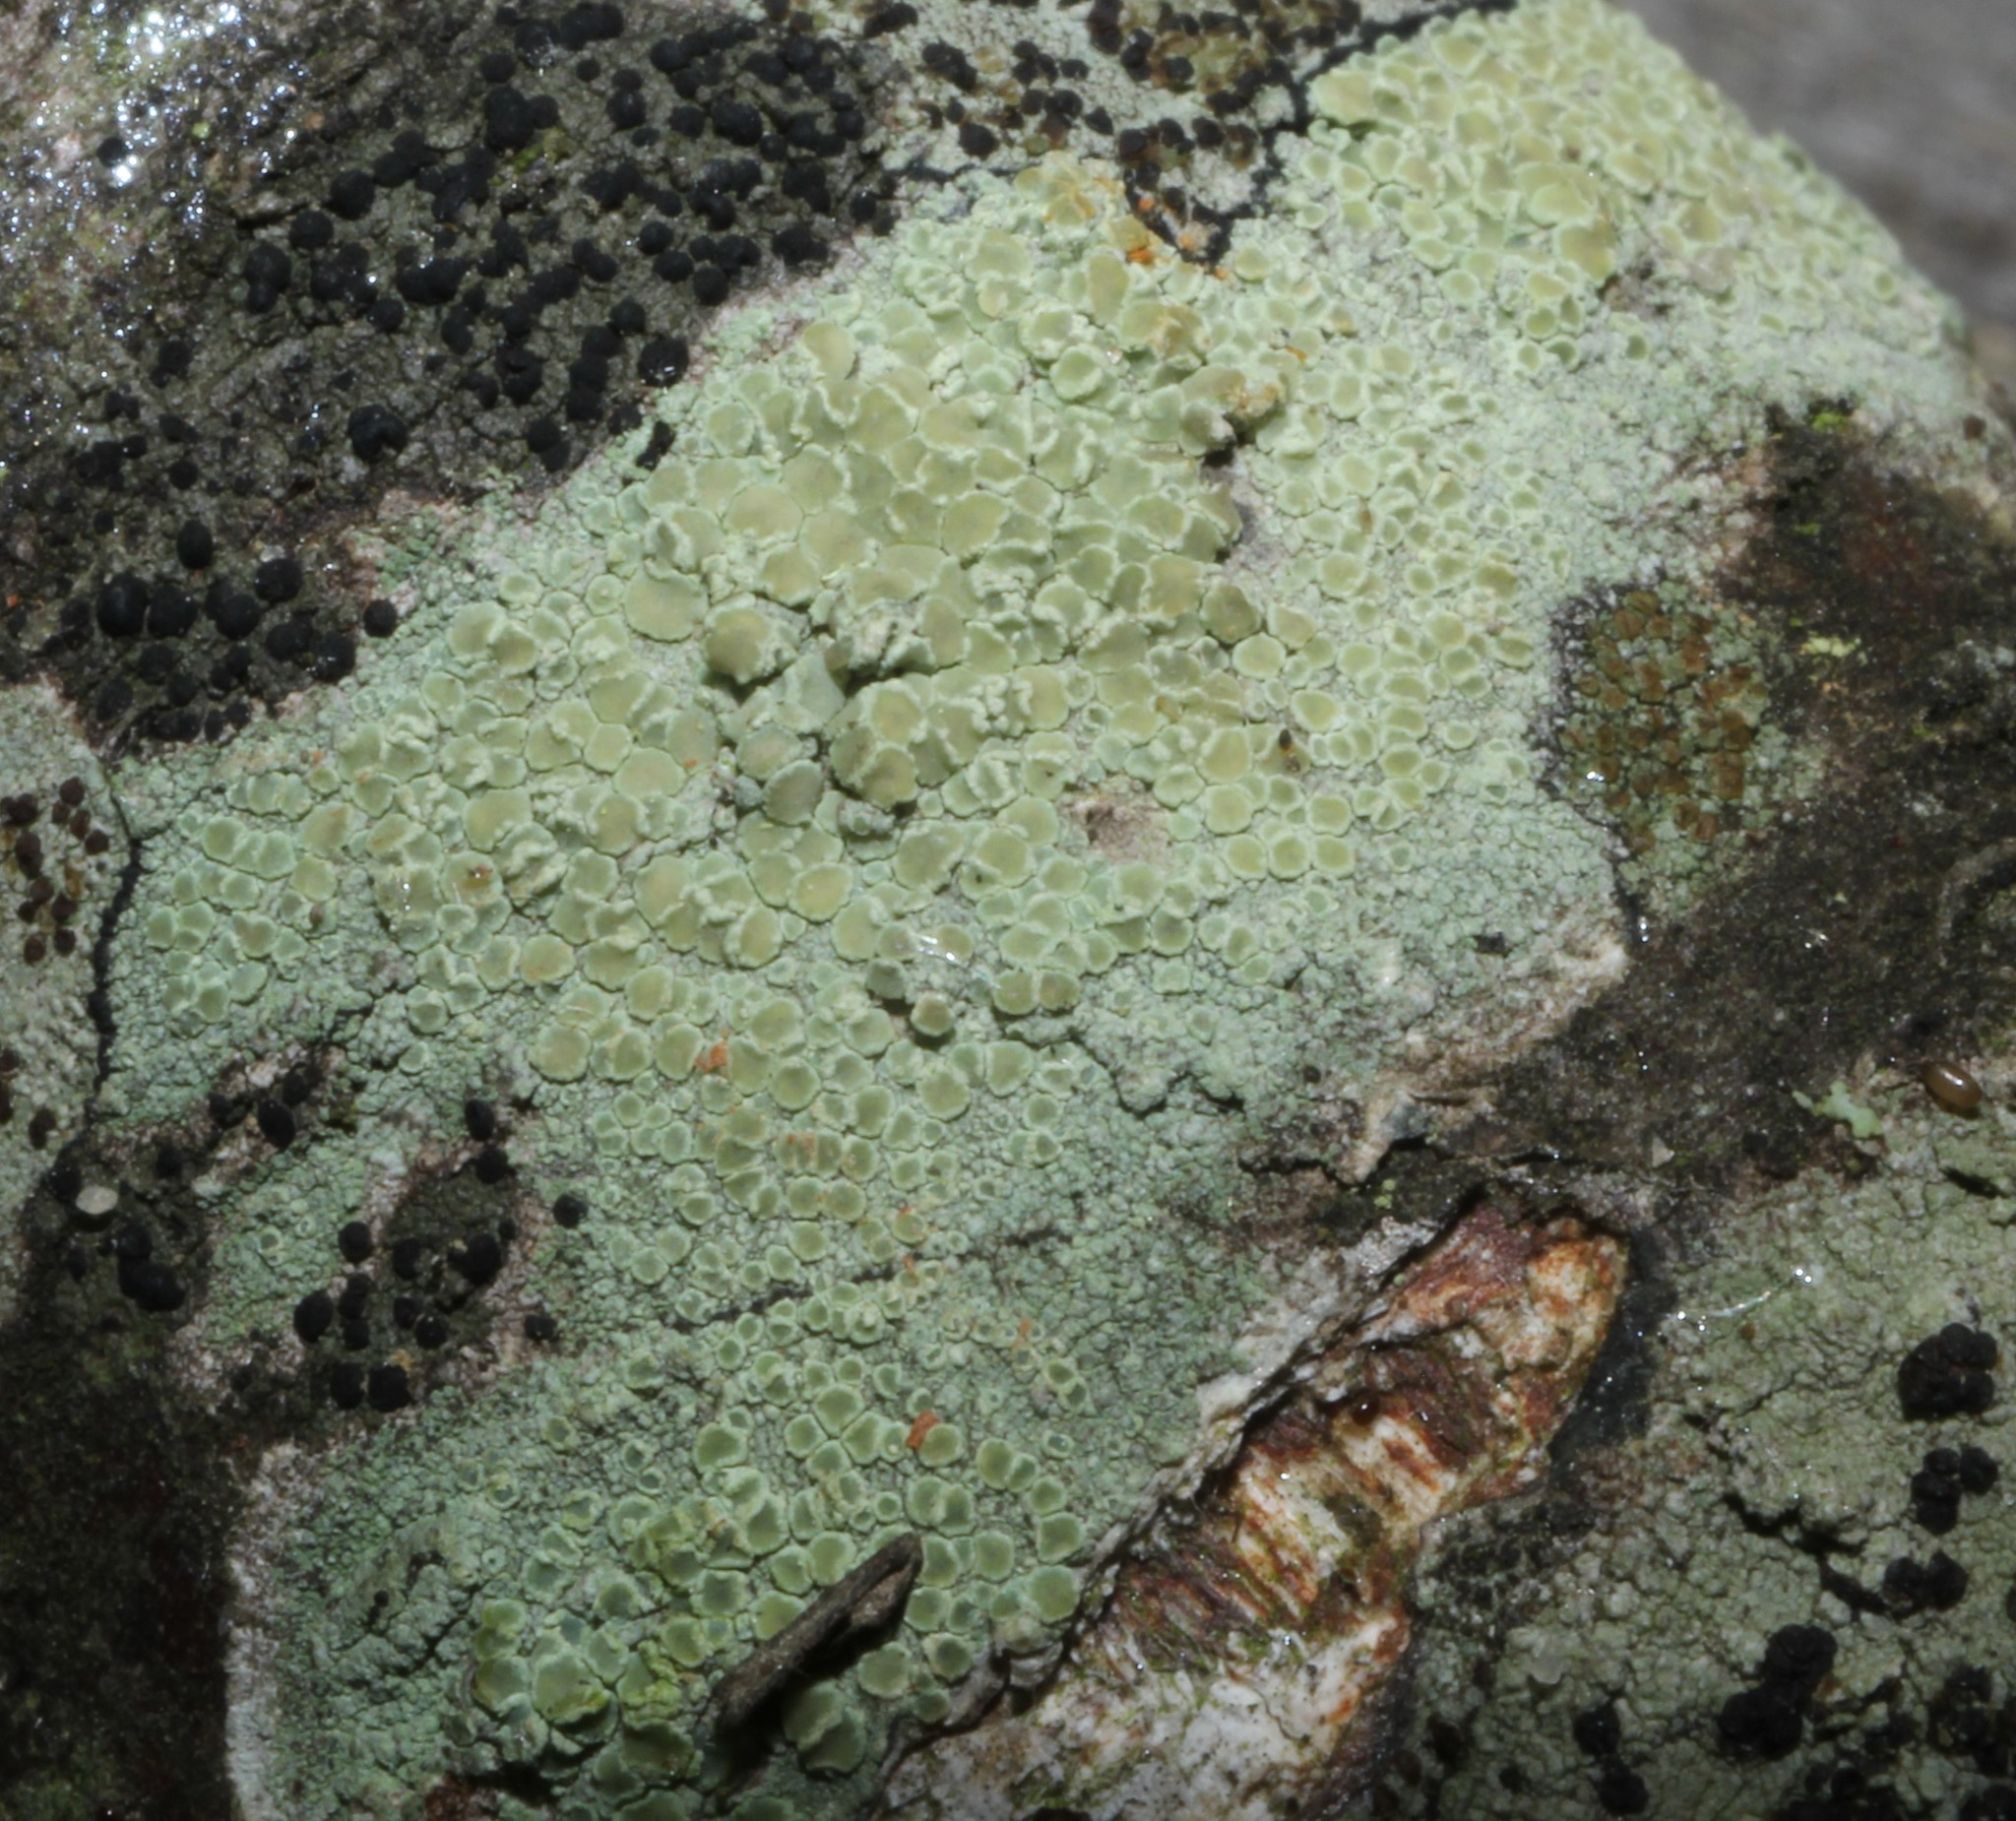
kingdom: Fungi
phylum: Ascomycota
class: Lecanoromycetes
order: Lecanorales
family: Lecanoraceae
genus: Lecanora
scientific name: Lecanora strobilina
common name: Mealy rim-lichen
